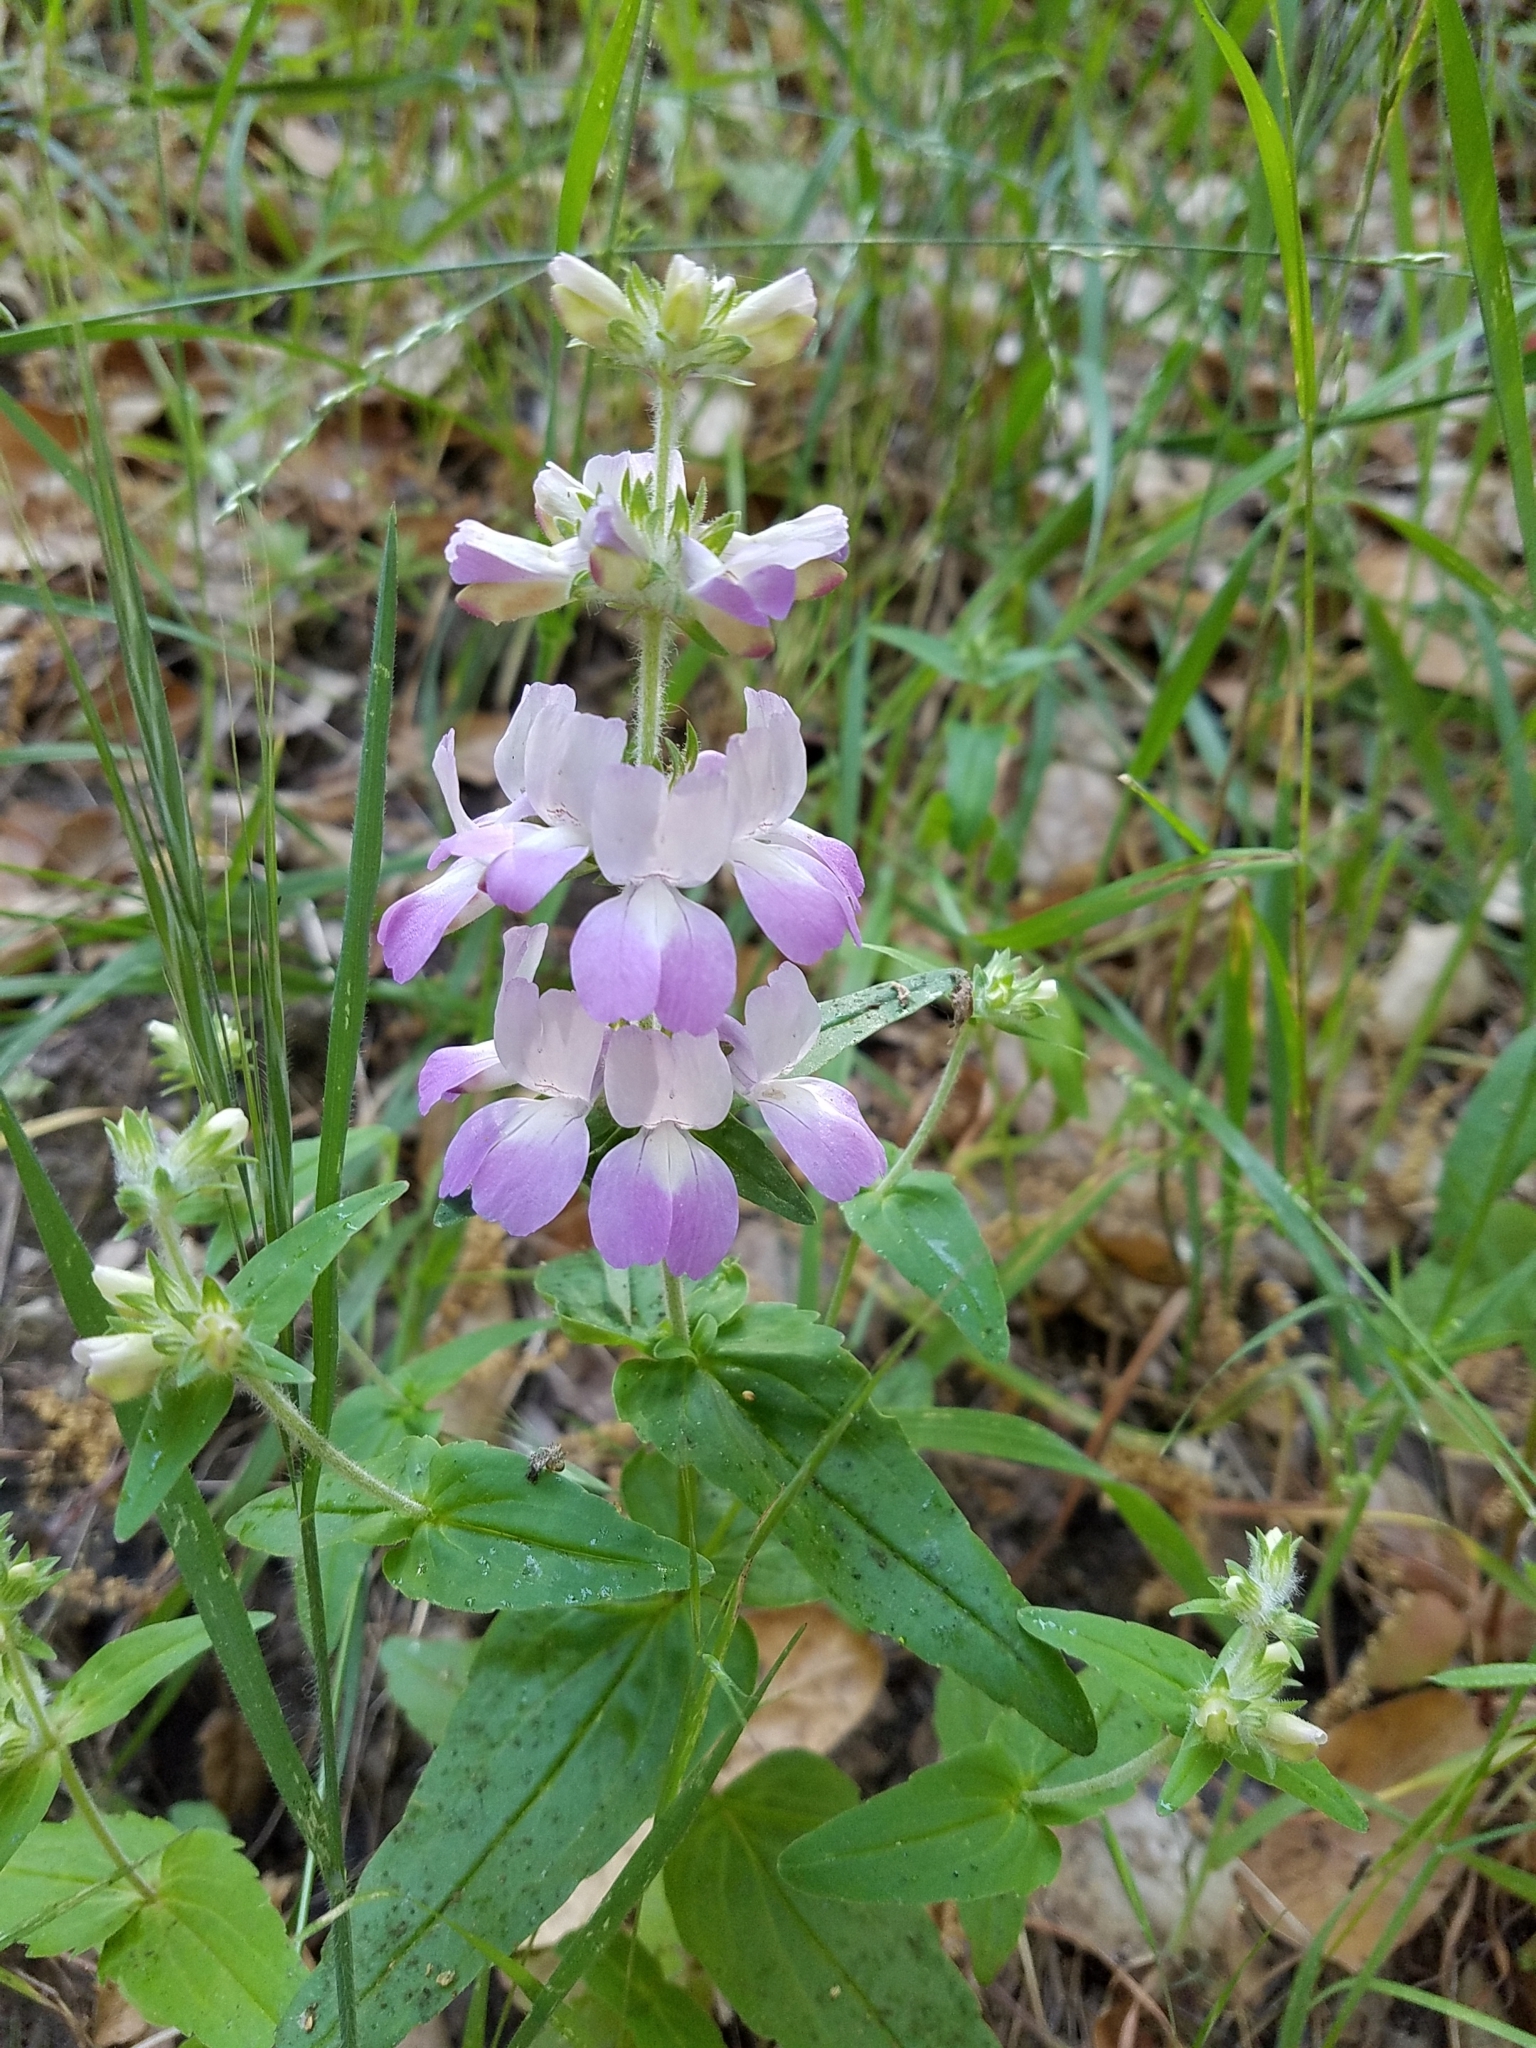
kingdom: Plantae
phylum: Tracheophyta
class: Magnoliopsida
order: Lamiales
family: Plantaginaceae
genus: Collinsia
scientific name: Collinsia heterophylla
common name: Chinese-houses
